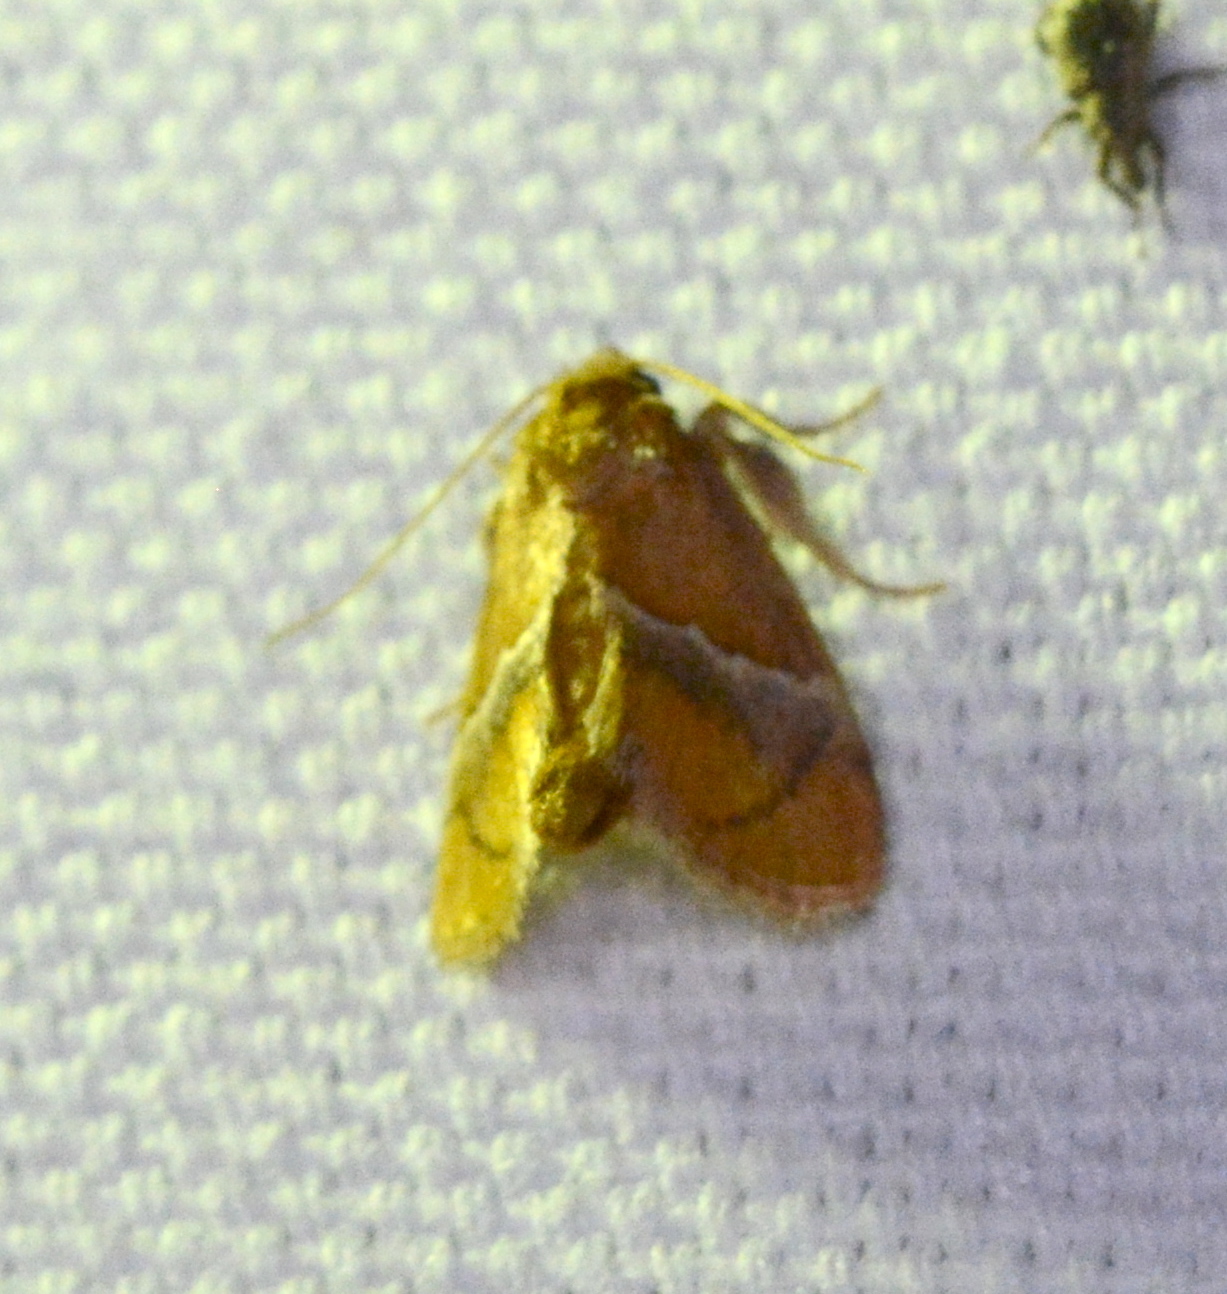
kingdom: Animalia
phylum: Arthropoda
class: Insecta
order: Lepidoptera
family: Limacodidae
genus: Lithacodes
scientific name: Lithacodes fasciola
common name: Yellow-shouldered slug moth
